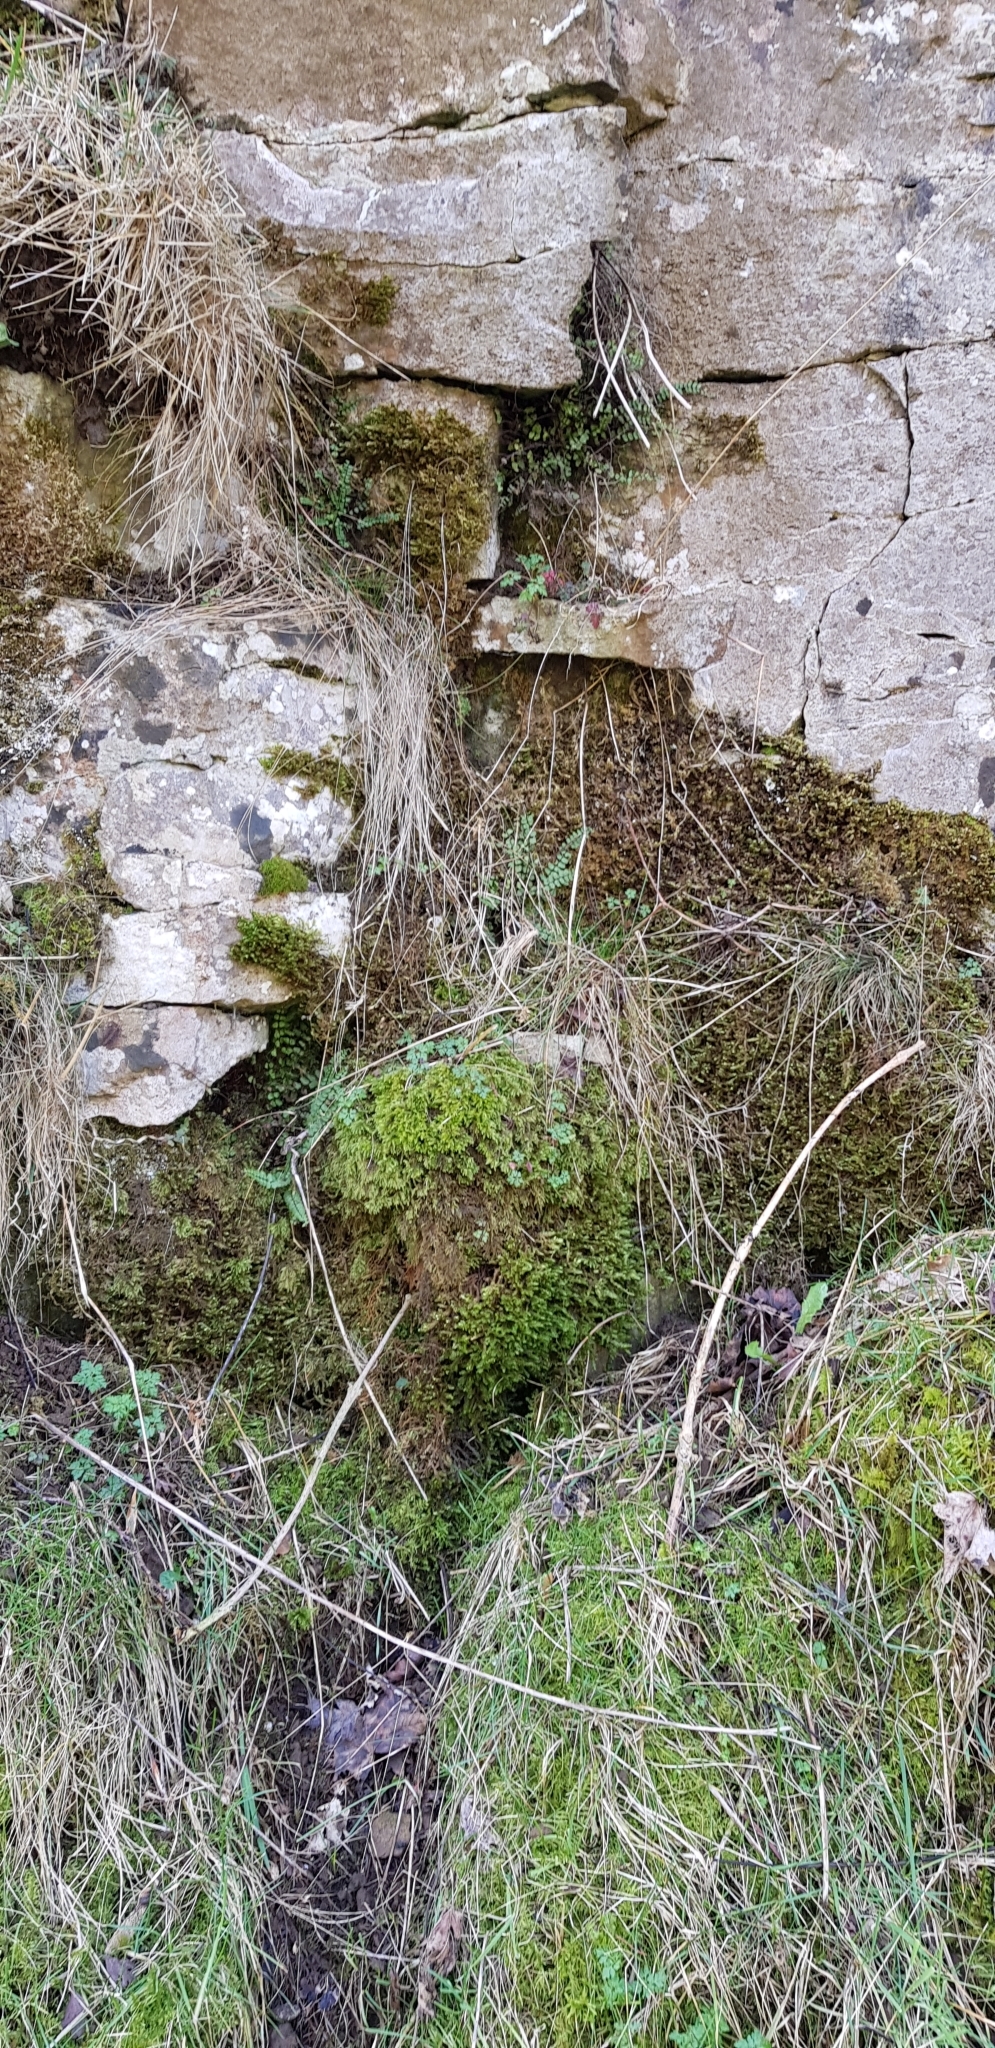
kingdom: Plantae
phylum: Bryophyta
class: Bryopsida
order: Hypnales
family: Neckeraceae
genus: Thamnobryum
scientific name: Thamnobryum alopecurum
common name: Fox-tail feather-moss
